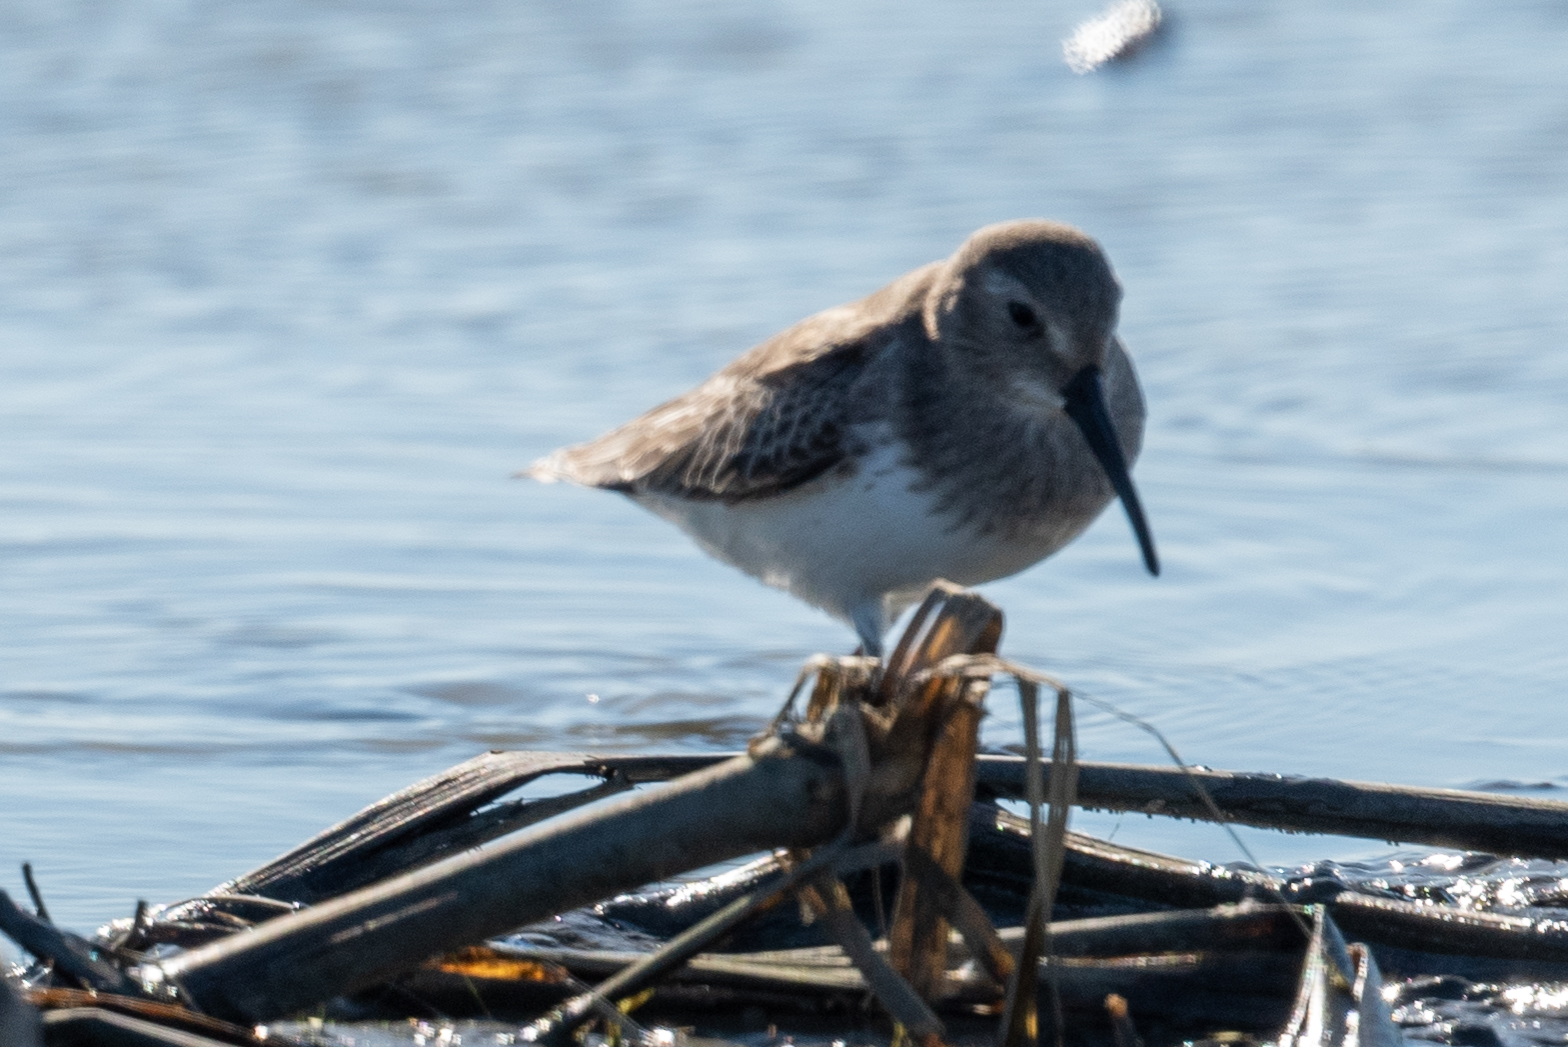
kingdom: Animalia
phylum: Chordata
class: Aves
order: Charadriiformes
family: Scolopacidae
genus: Calidris
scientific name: Calidris alpina
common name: Dunlin
